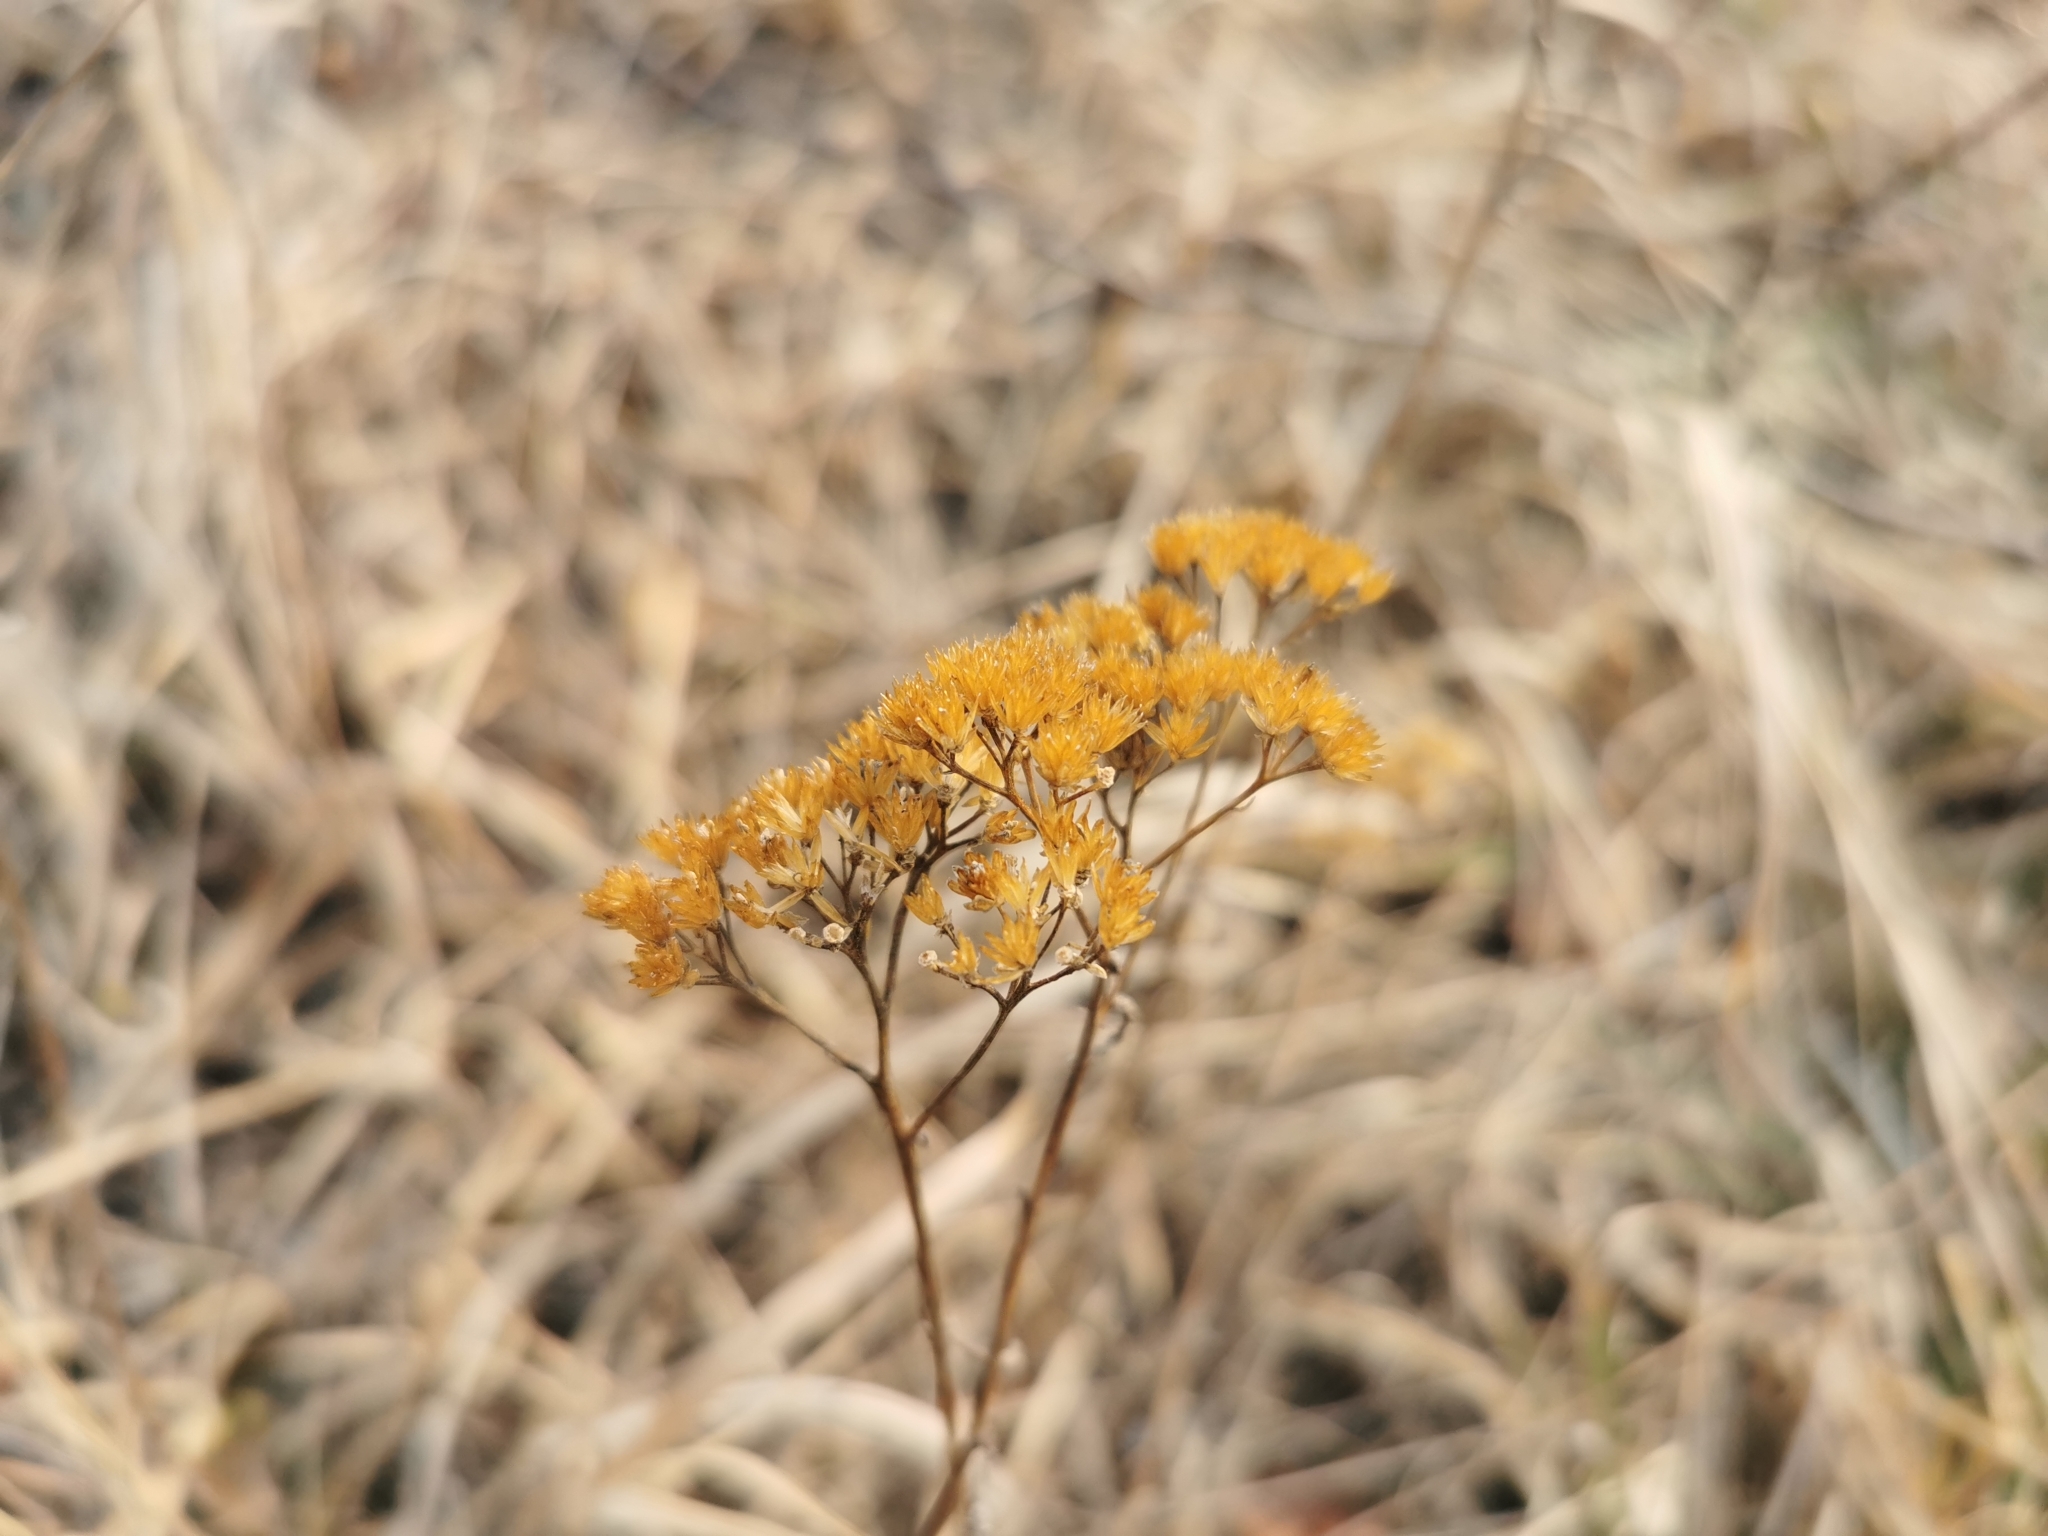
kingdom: Plantae
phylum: Tracheophyta
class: Magnoliopsida
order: Asterales
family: Asteraceae
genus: Achillea
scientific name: Achillea millefolium
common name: Yarrow
